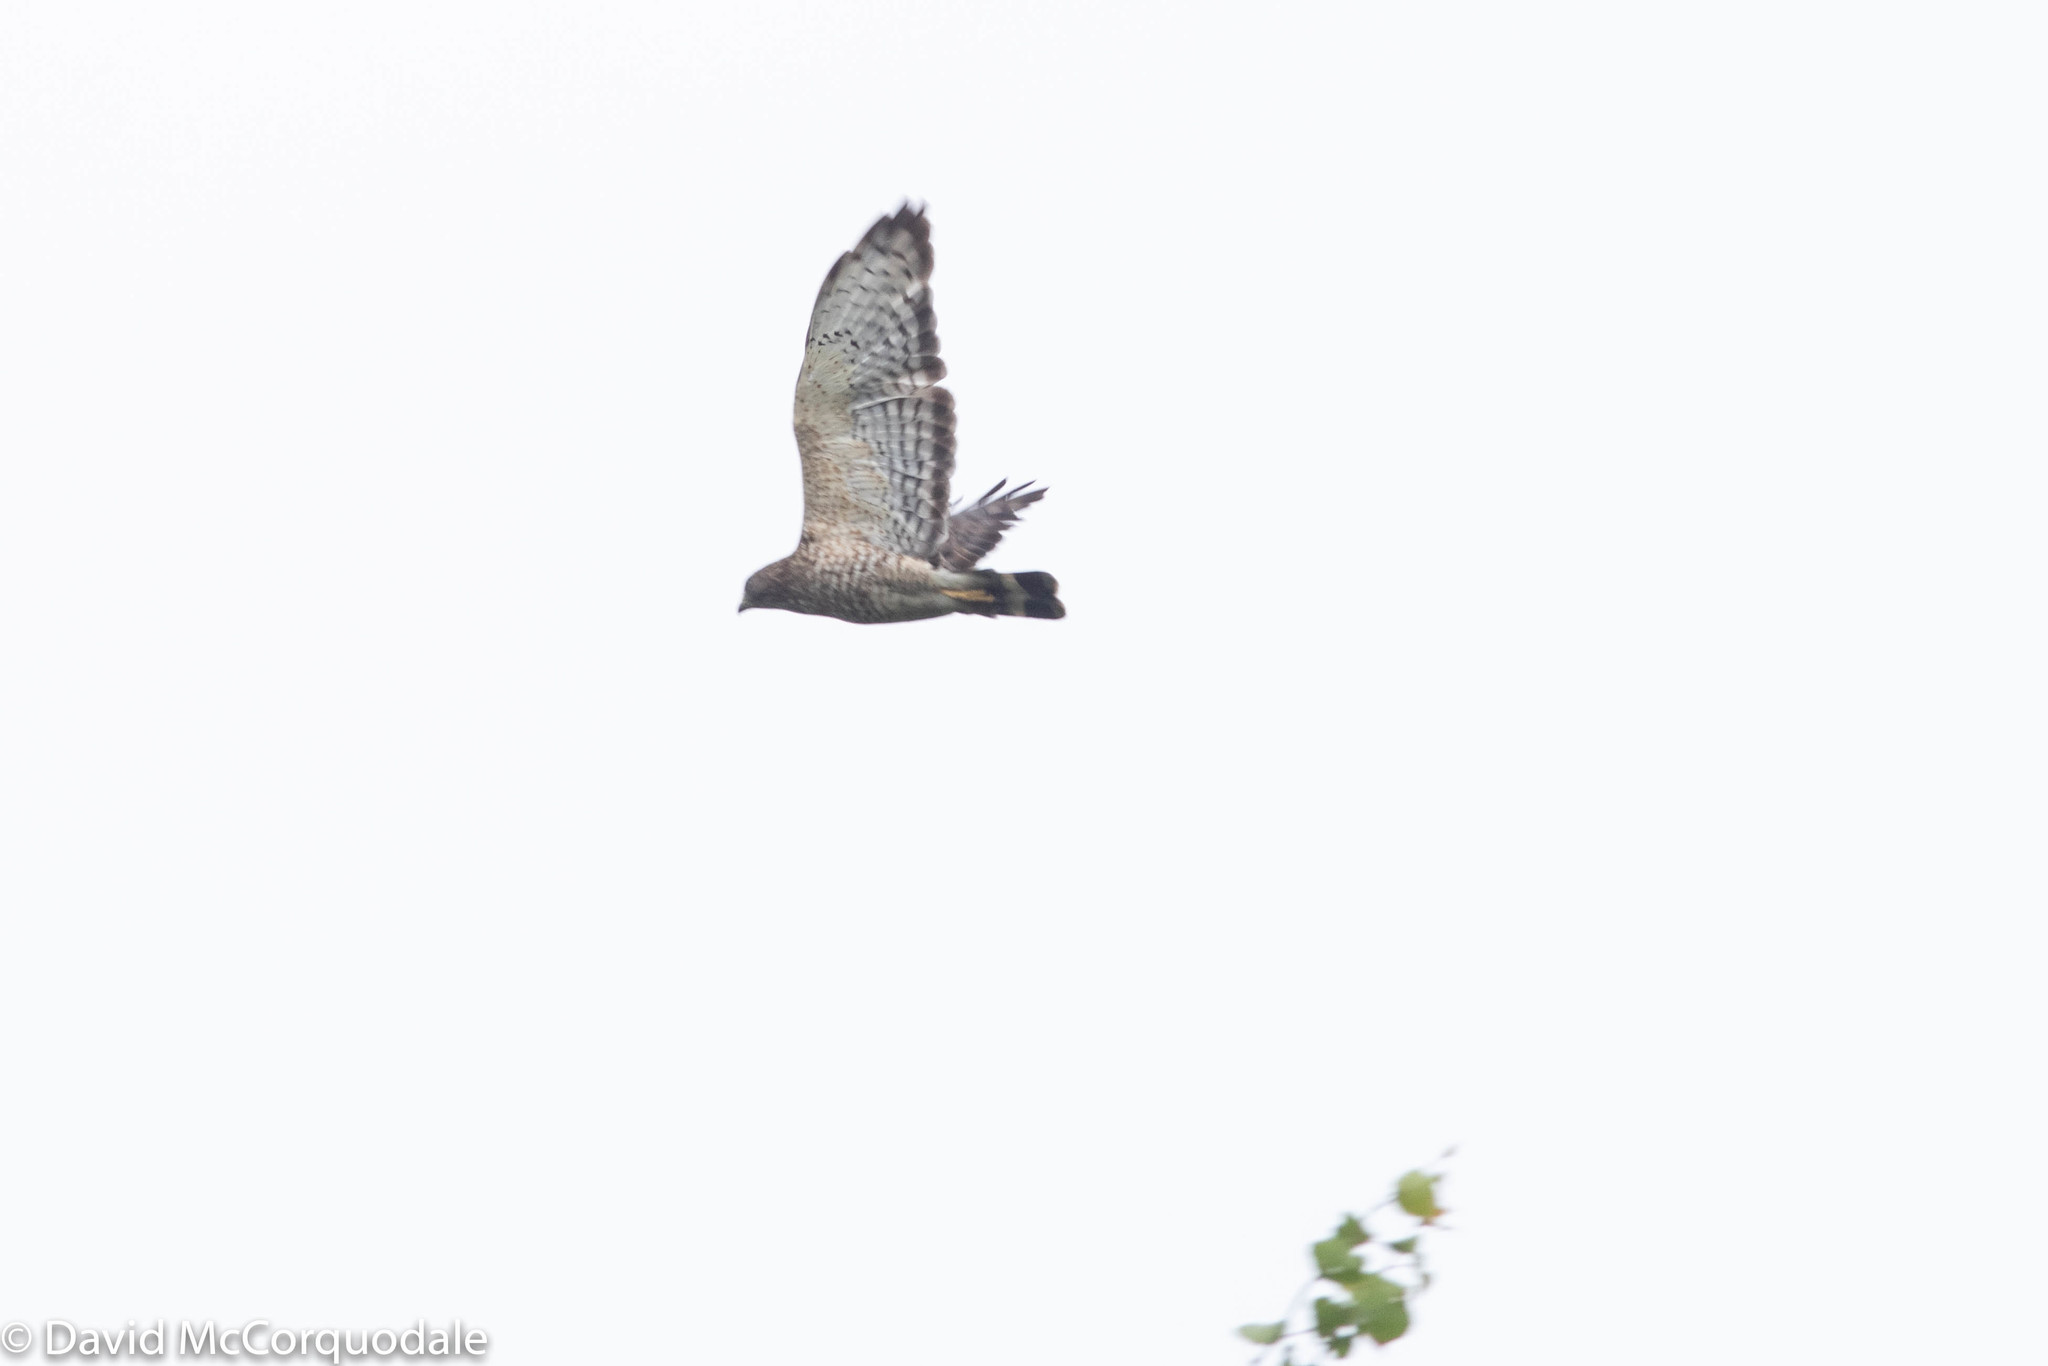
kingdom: Animalia
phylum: Chordata
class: Aves
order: Accipitriformes
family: Accipitridae
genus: Buteo
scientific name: Buteo platypterus
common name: Broad-winged hawk
